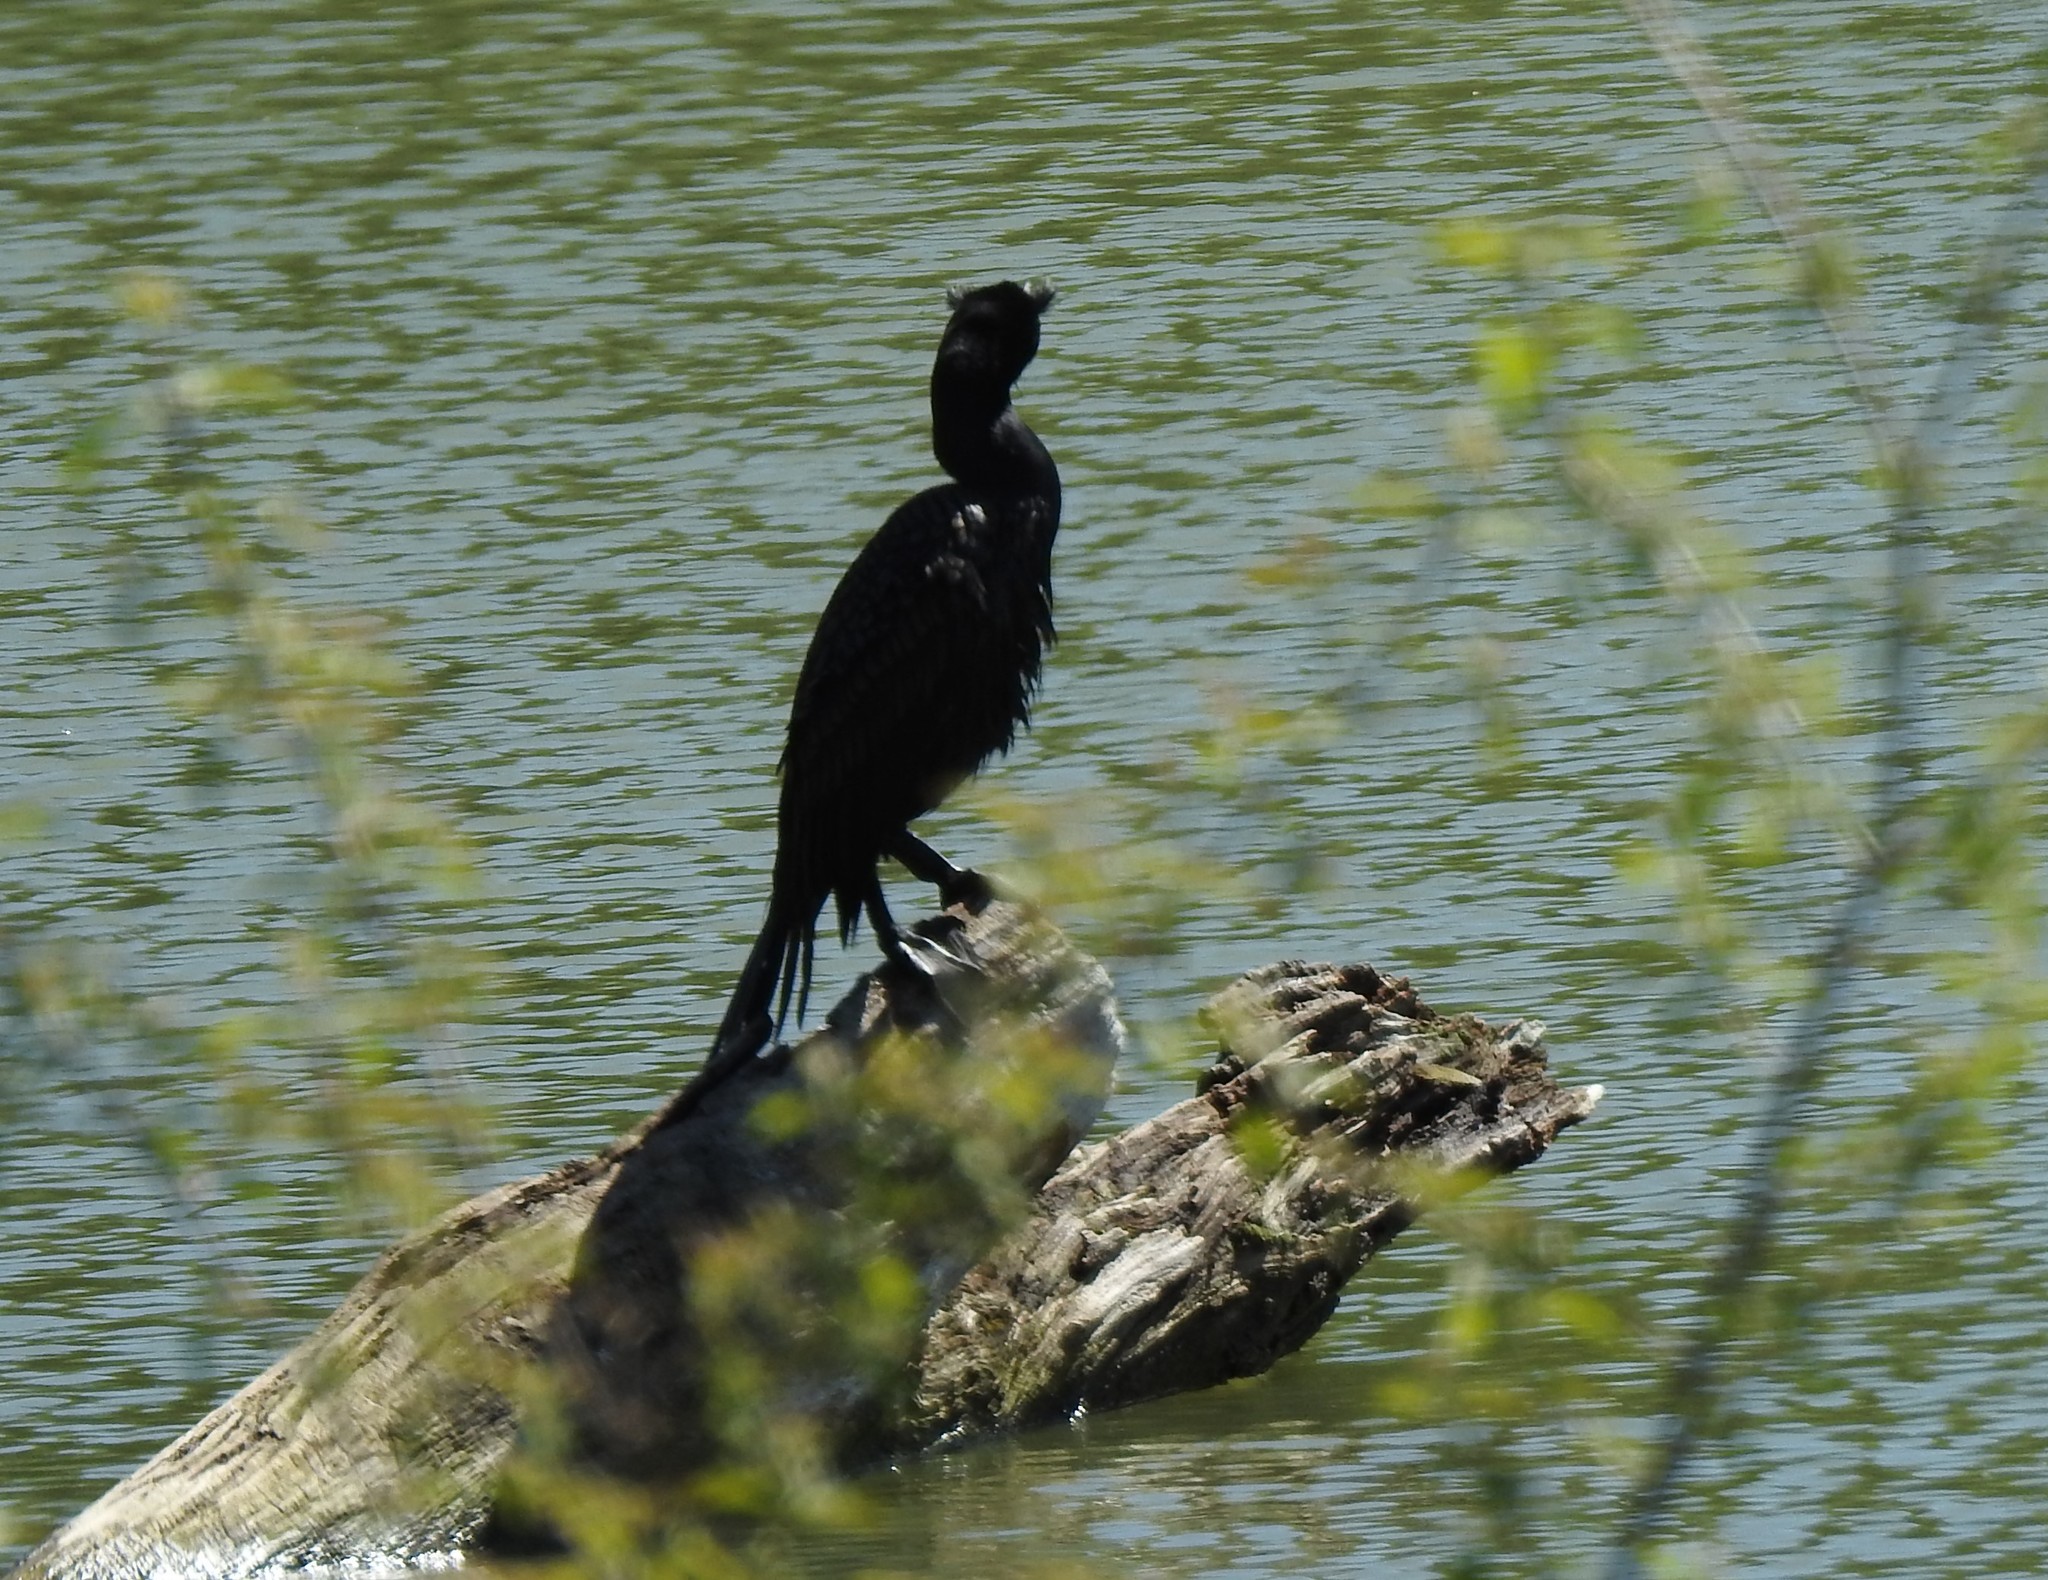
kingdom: Animalia
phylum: Chordata
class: Aves
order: Suliformes
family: Phalacrocoracidae
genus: Phalacrocorax
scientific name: Phalacrocorax auritus
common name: Double-crested cormorant
